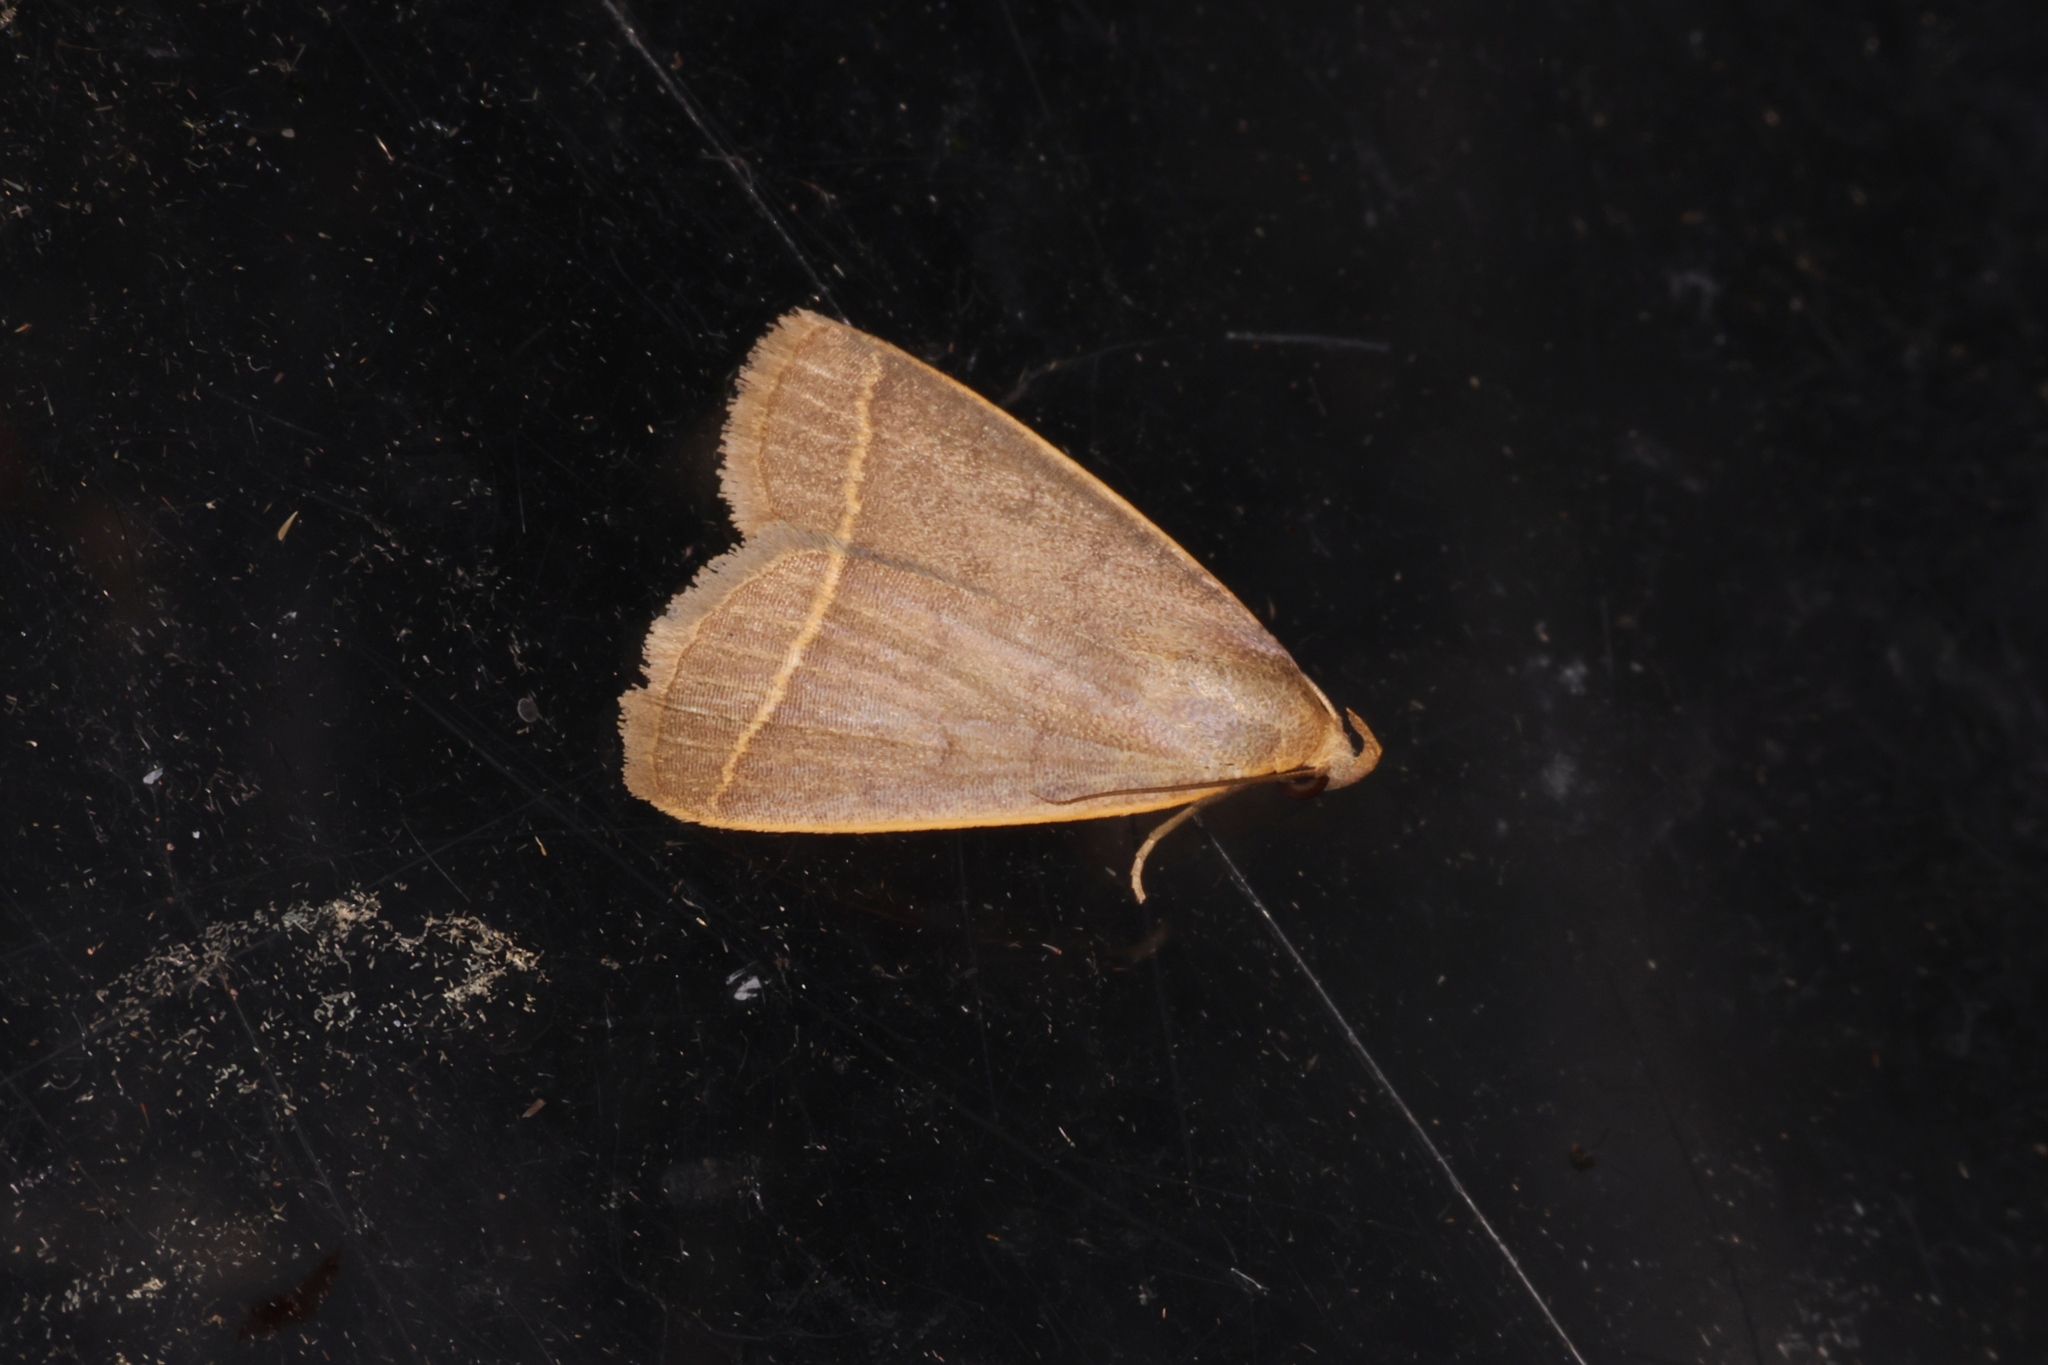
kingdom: Animalia
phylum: Arthropoda
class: Insecta
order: Lepidoptera
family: Erebidae
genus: Simplicia
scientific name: Simplicia cornicalis
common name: Tiki hut litter moth
